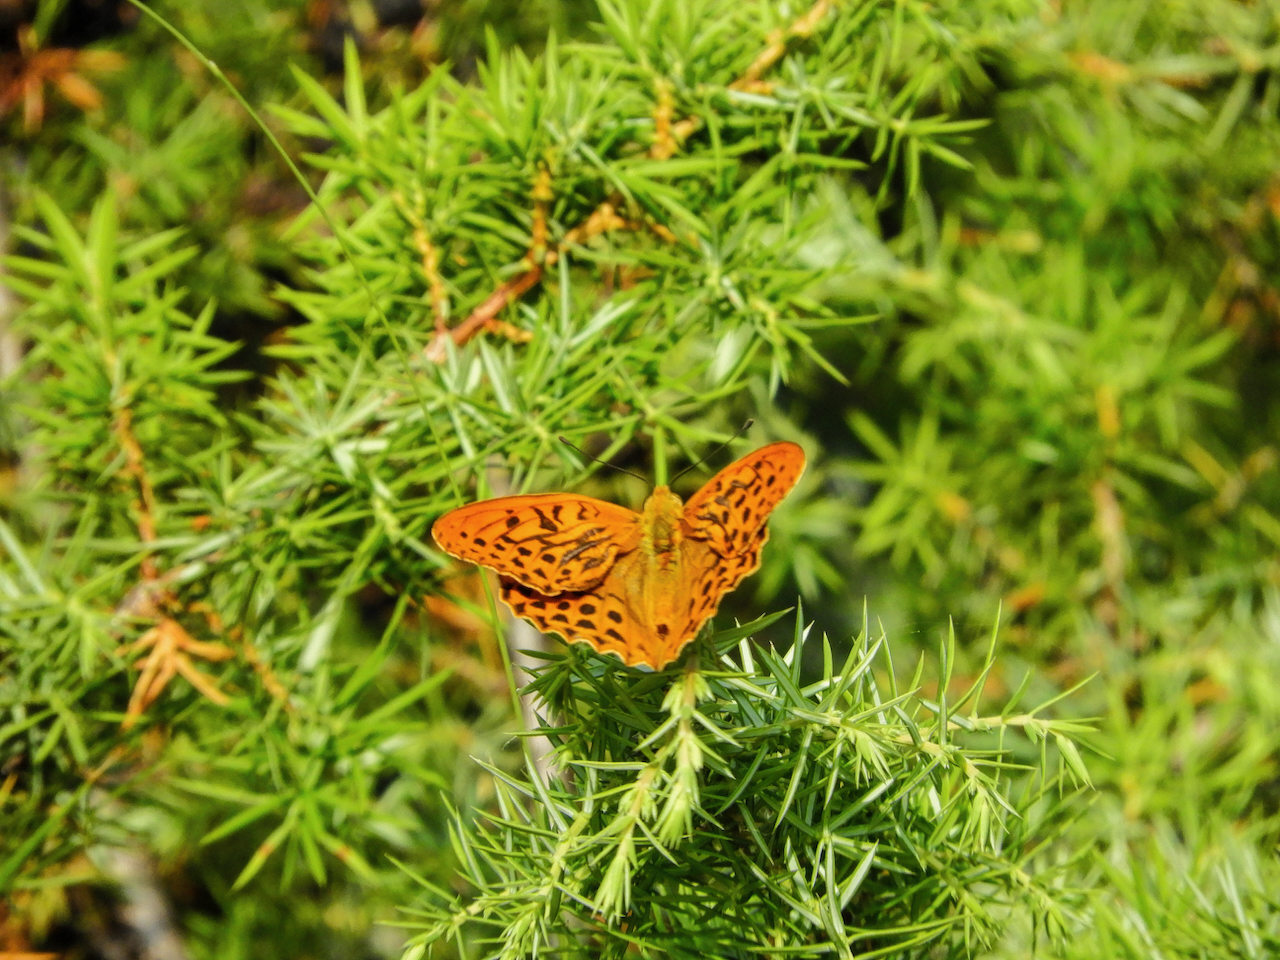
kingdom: Animalia
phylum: Arthropoda
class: Insecta
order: Lepidoptera
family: Nymphalidae
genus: Argynnis
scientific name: Argynnis paphia
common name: Silver-washed fritillary
